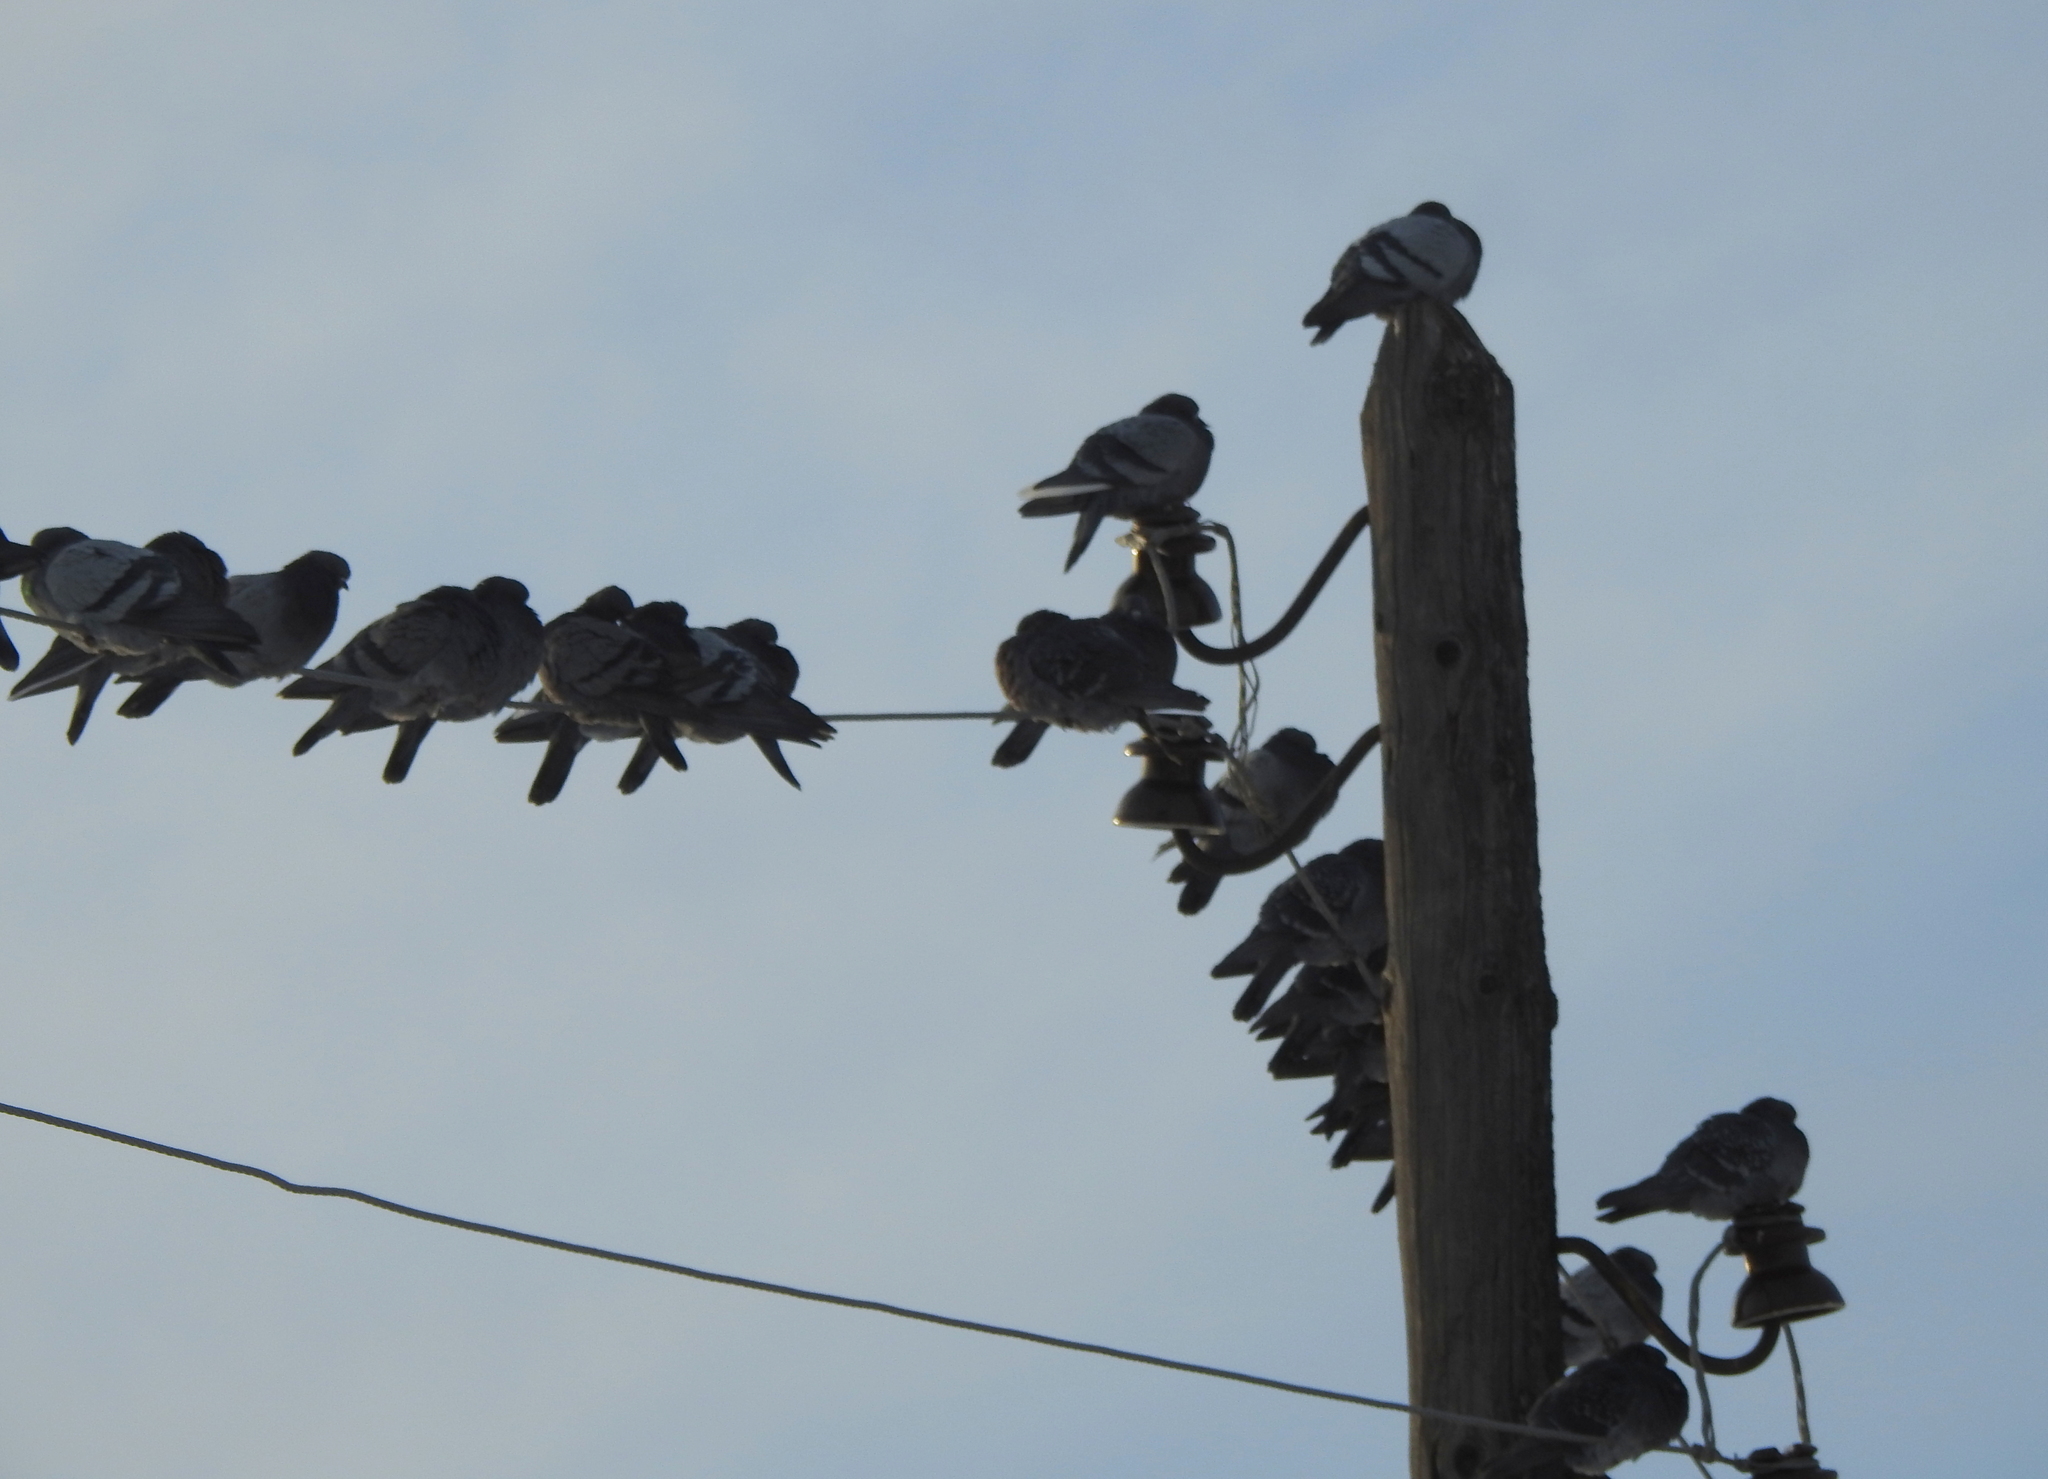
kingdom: Animalia
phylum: Chordata
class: Aves
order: Columbiformes
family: Columbidae
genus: Columba
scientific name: Columba livia
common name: Rock pigeon
